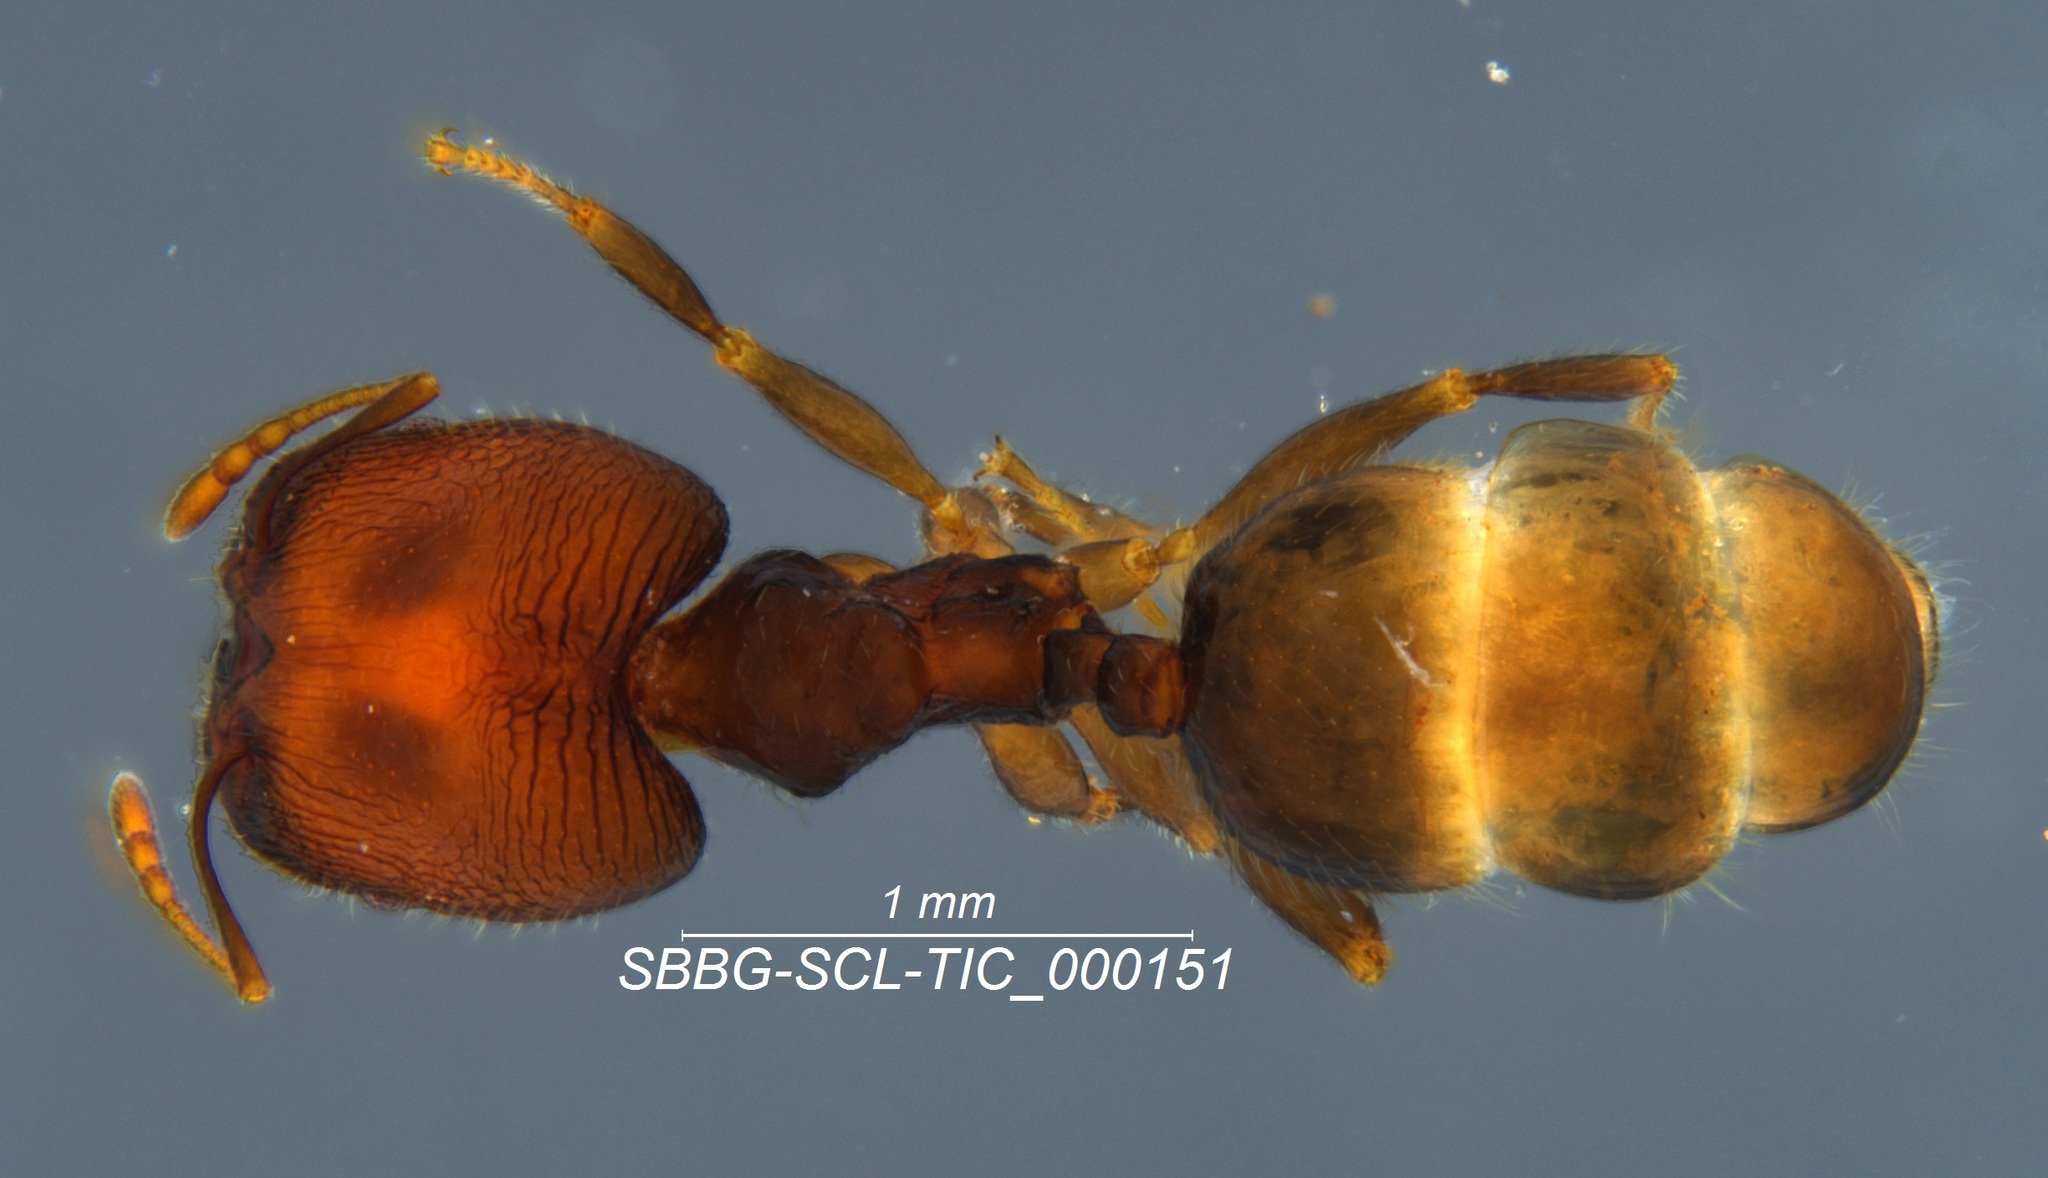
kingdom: Animalia
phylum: Arthropoda
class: Insecta
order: Hymenoptera
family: Formicidae
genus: Pheidole
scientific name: Pheidole clementensis
